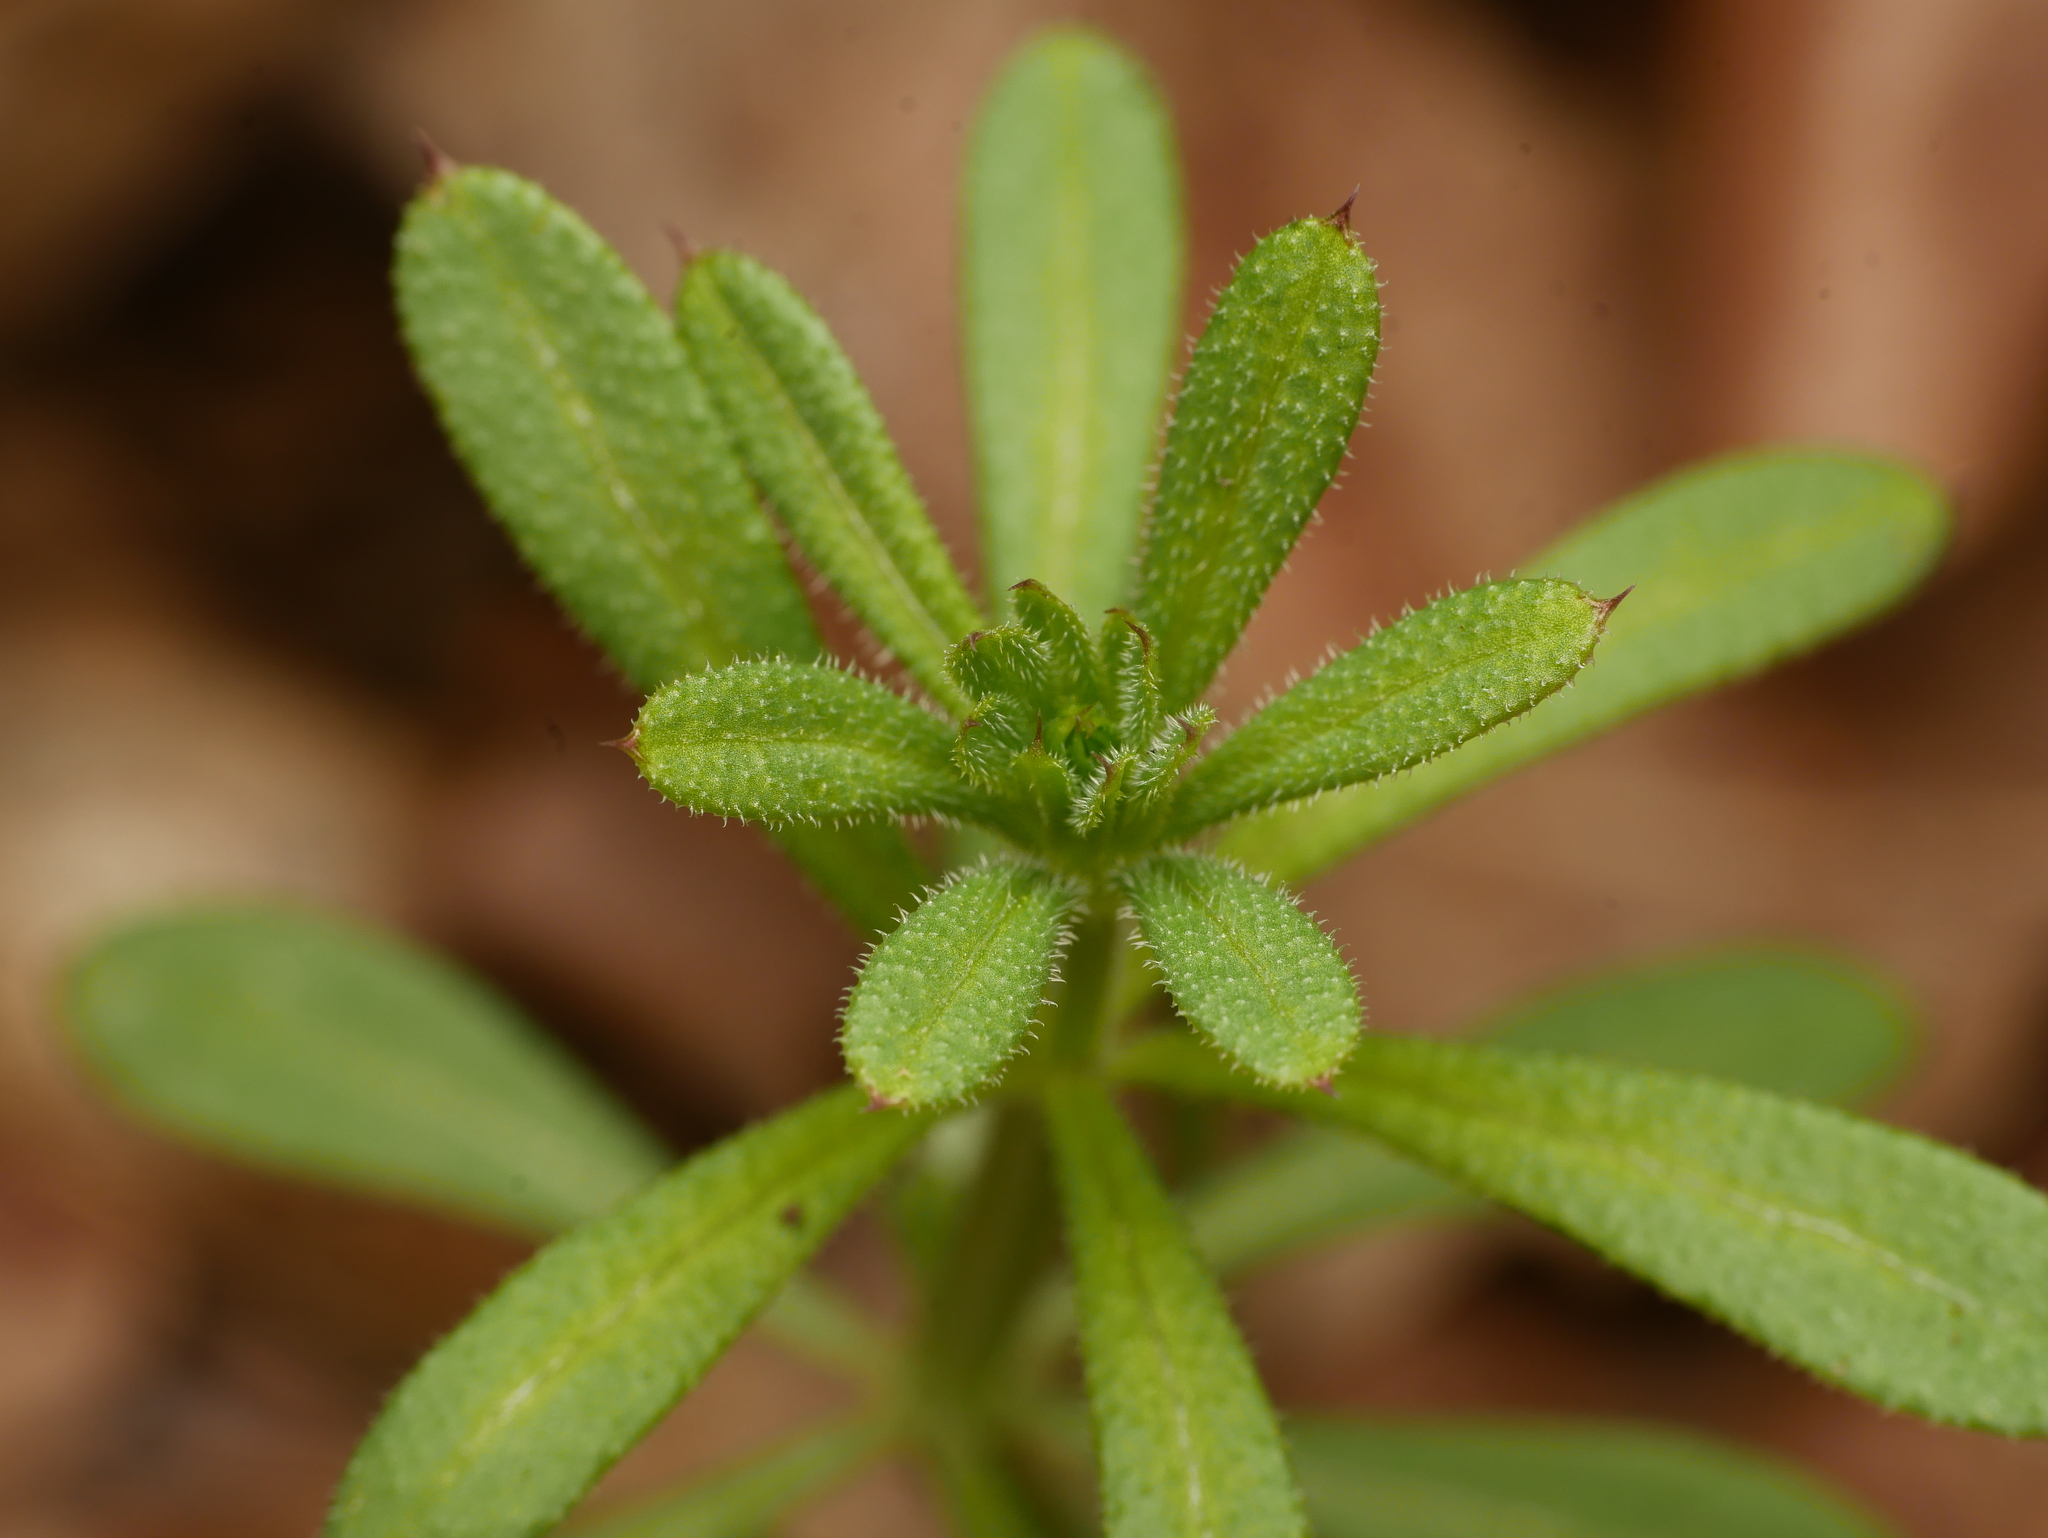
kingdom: Plantae
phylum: Tracheophyta
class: Magnoliopsida
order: Gentianales
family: Rubiaceae
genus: Galium
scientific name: Galium aparine
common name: Cleavers
